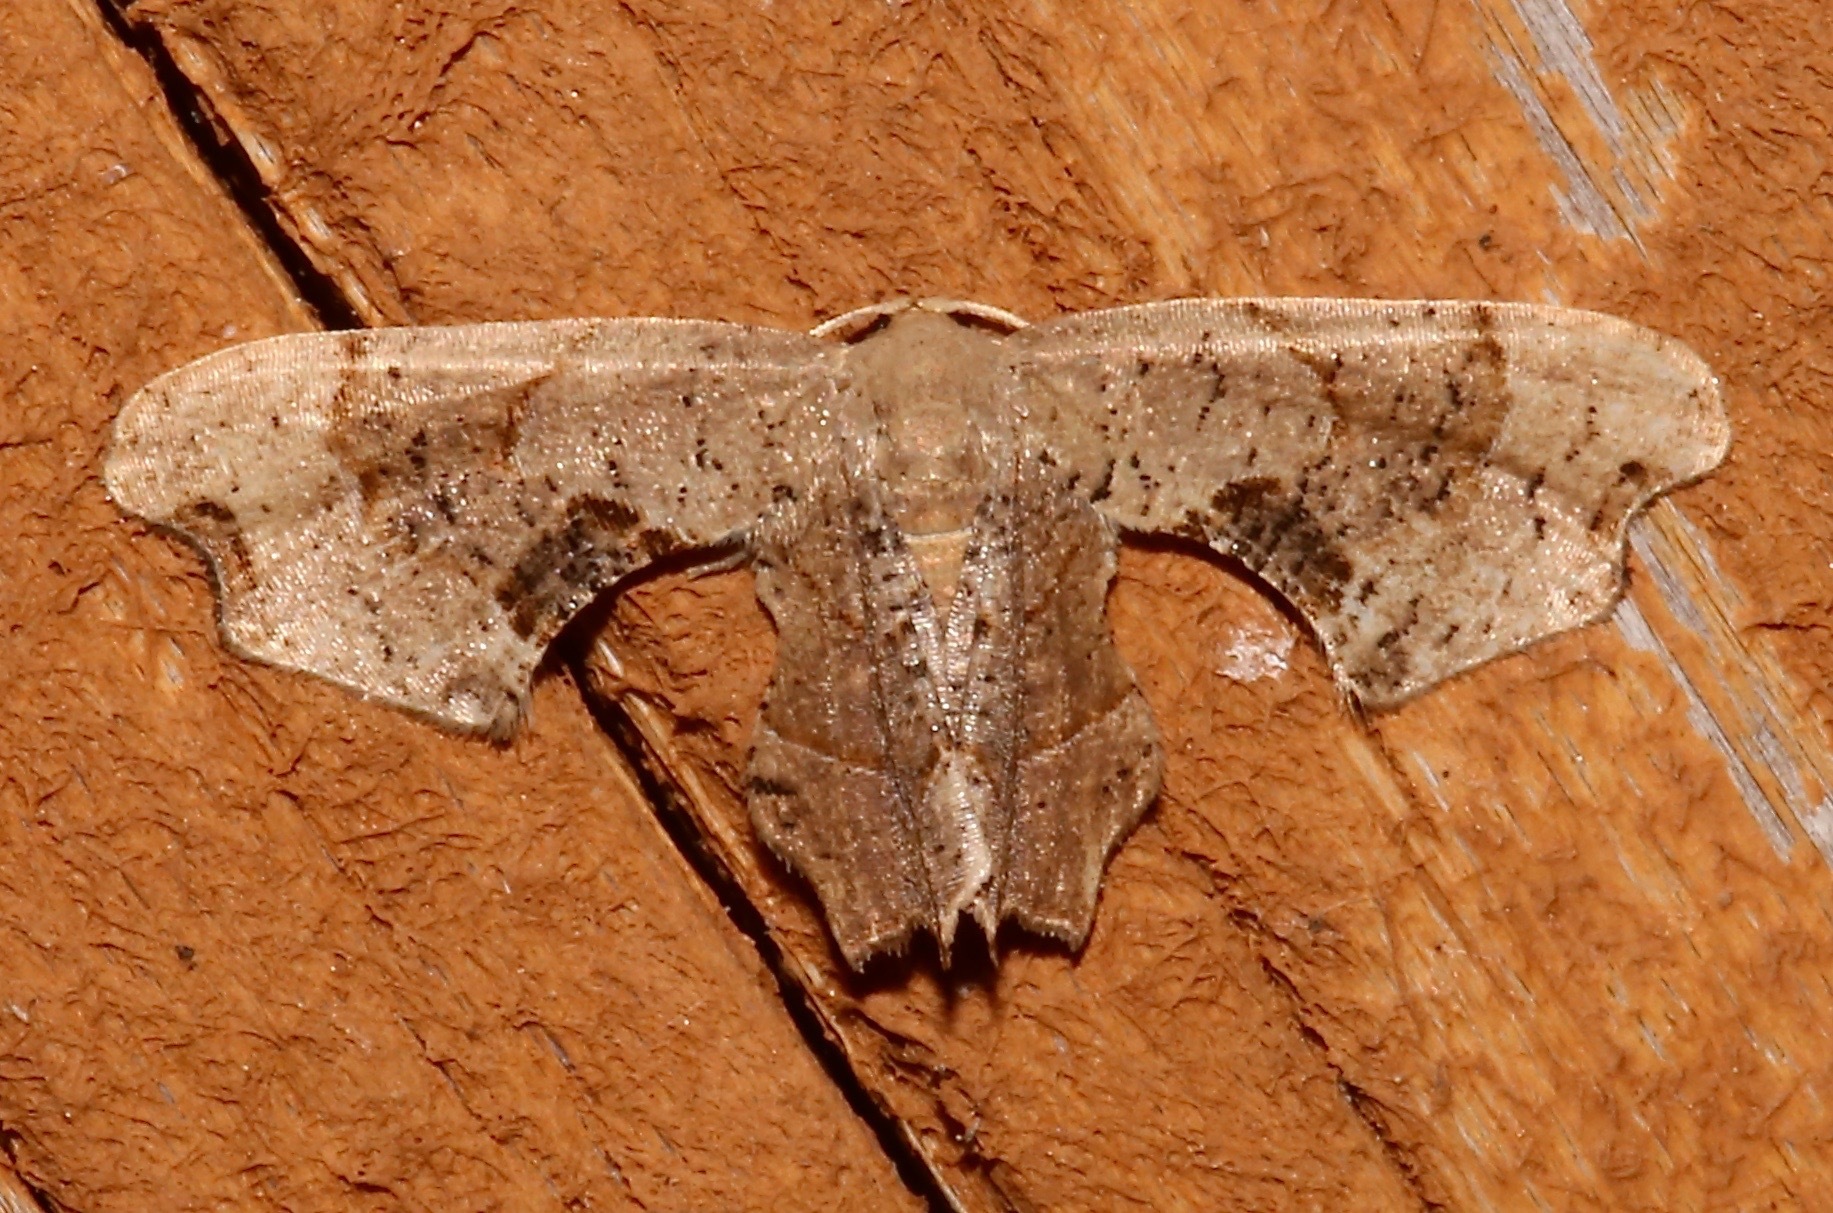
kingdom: Animalia
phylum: Arthropoda
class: Insecta
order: Lepidoptera
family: Uraniidae
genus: Epiplema
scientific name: Epiplema Calledapteryx dryopterata
